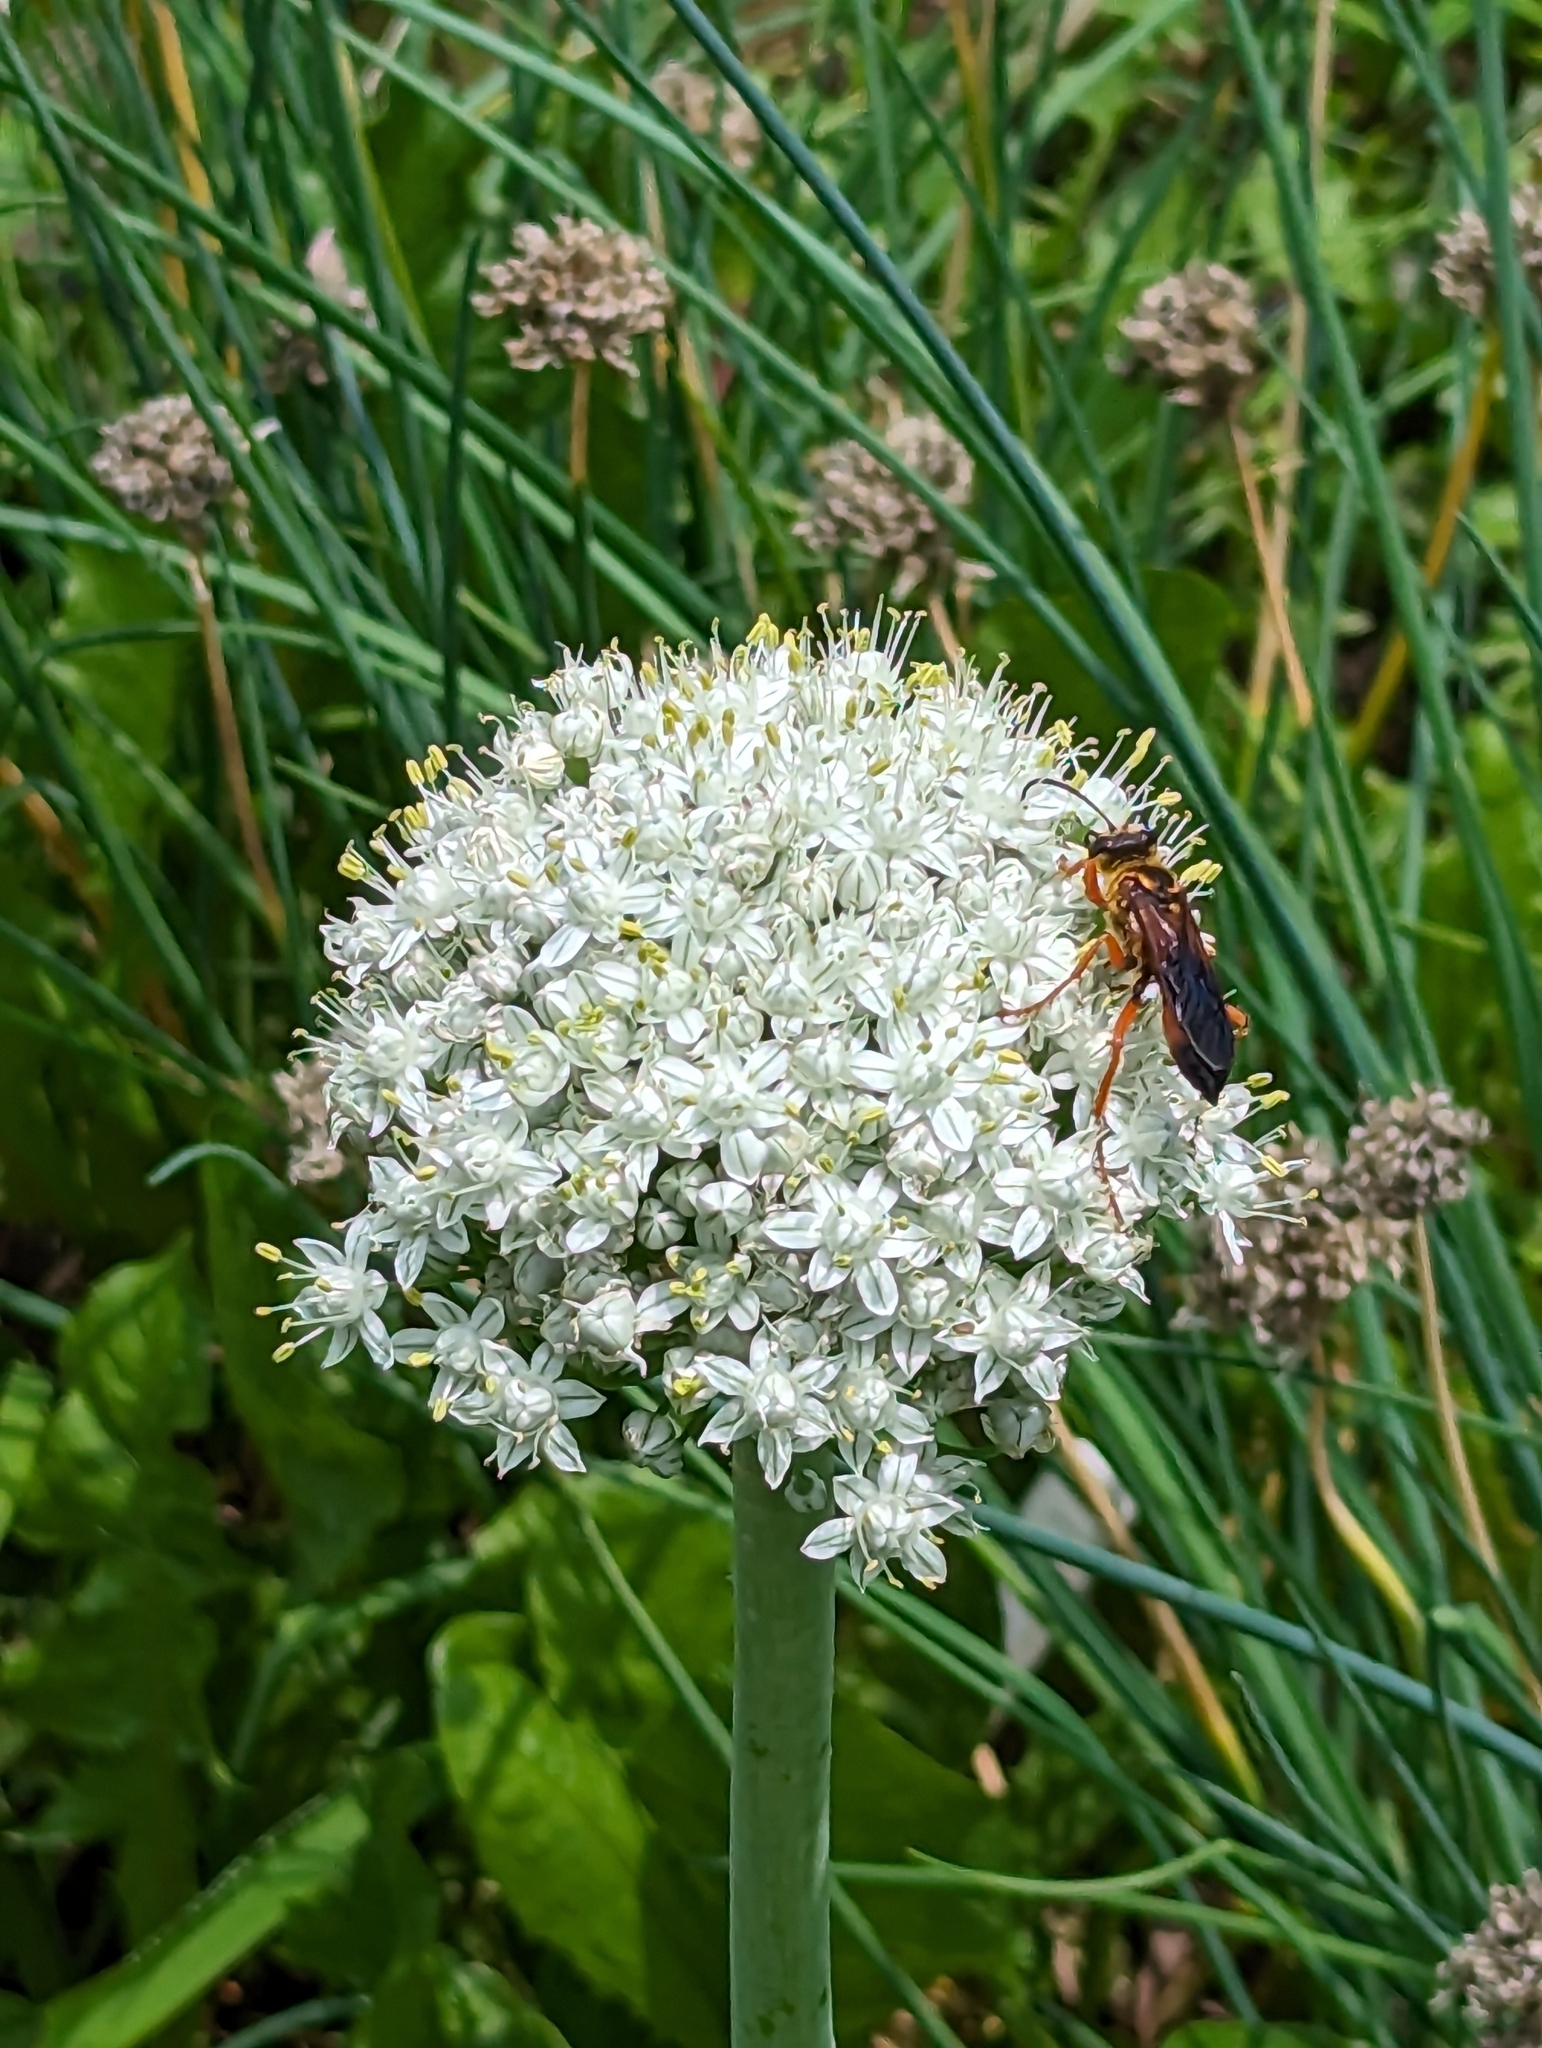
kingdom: Animalia
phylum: Arthropoda
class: Insecta
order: Hymenoptera
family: Sphecidae
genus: Sphex
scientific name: Sphex ichneumoneus
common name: Great golden digger wasp
